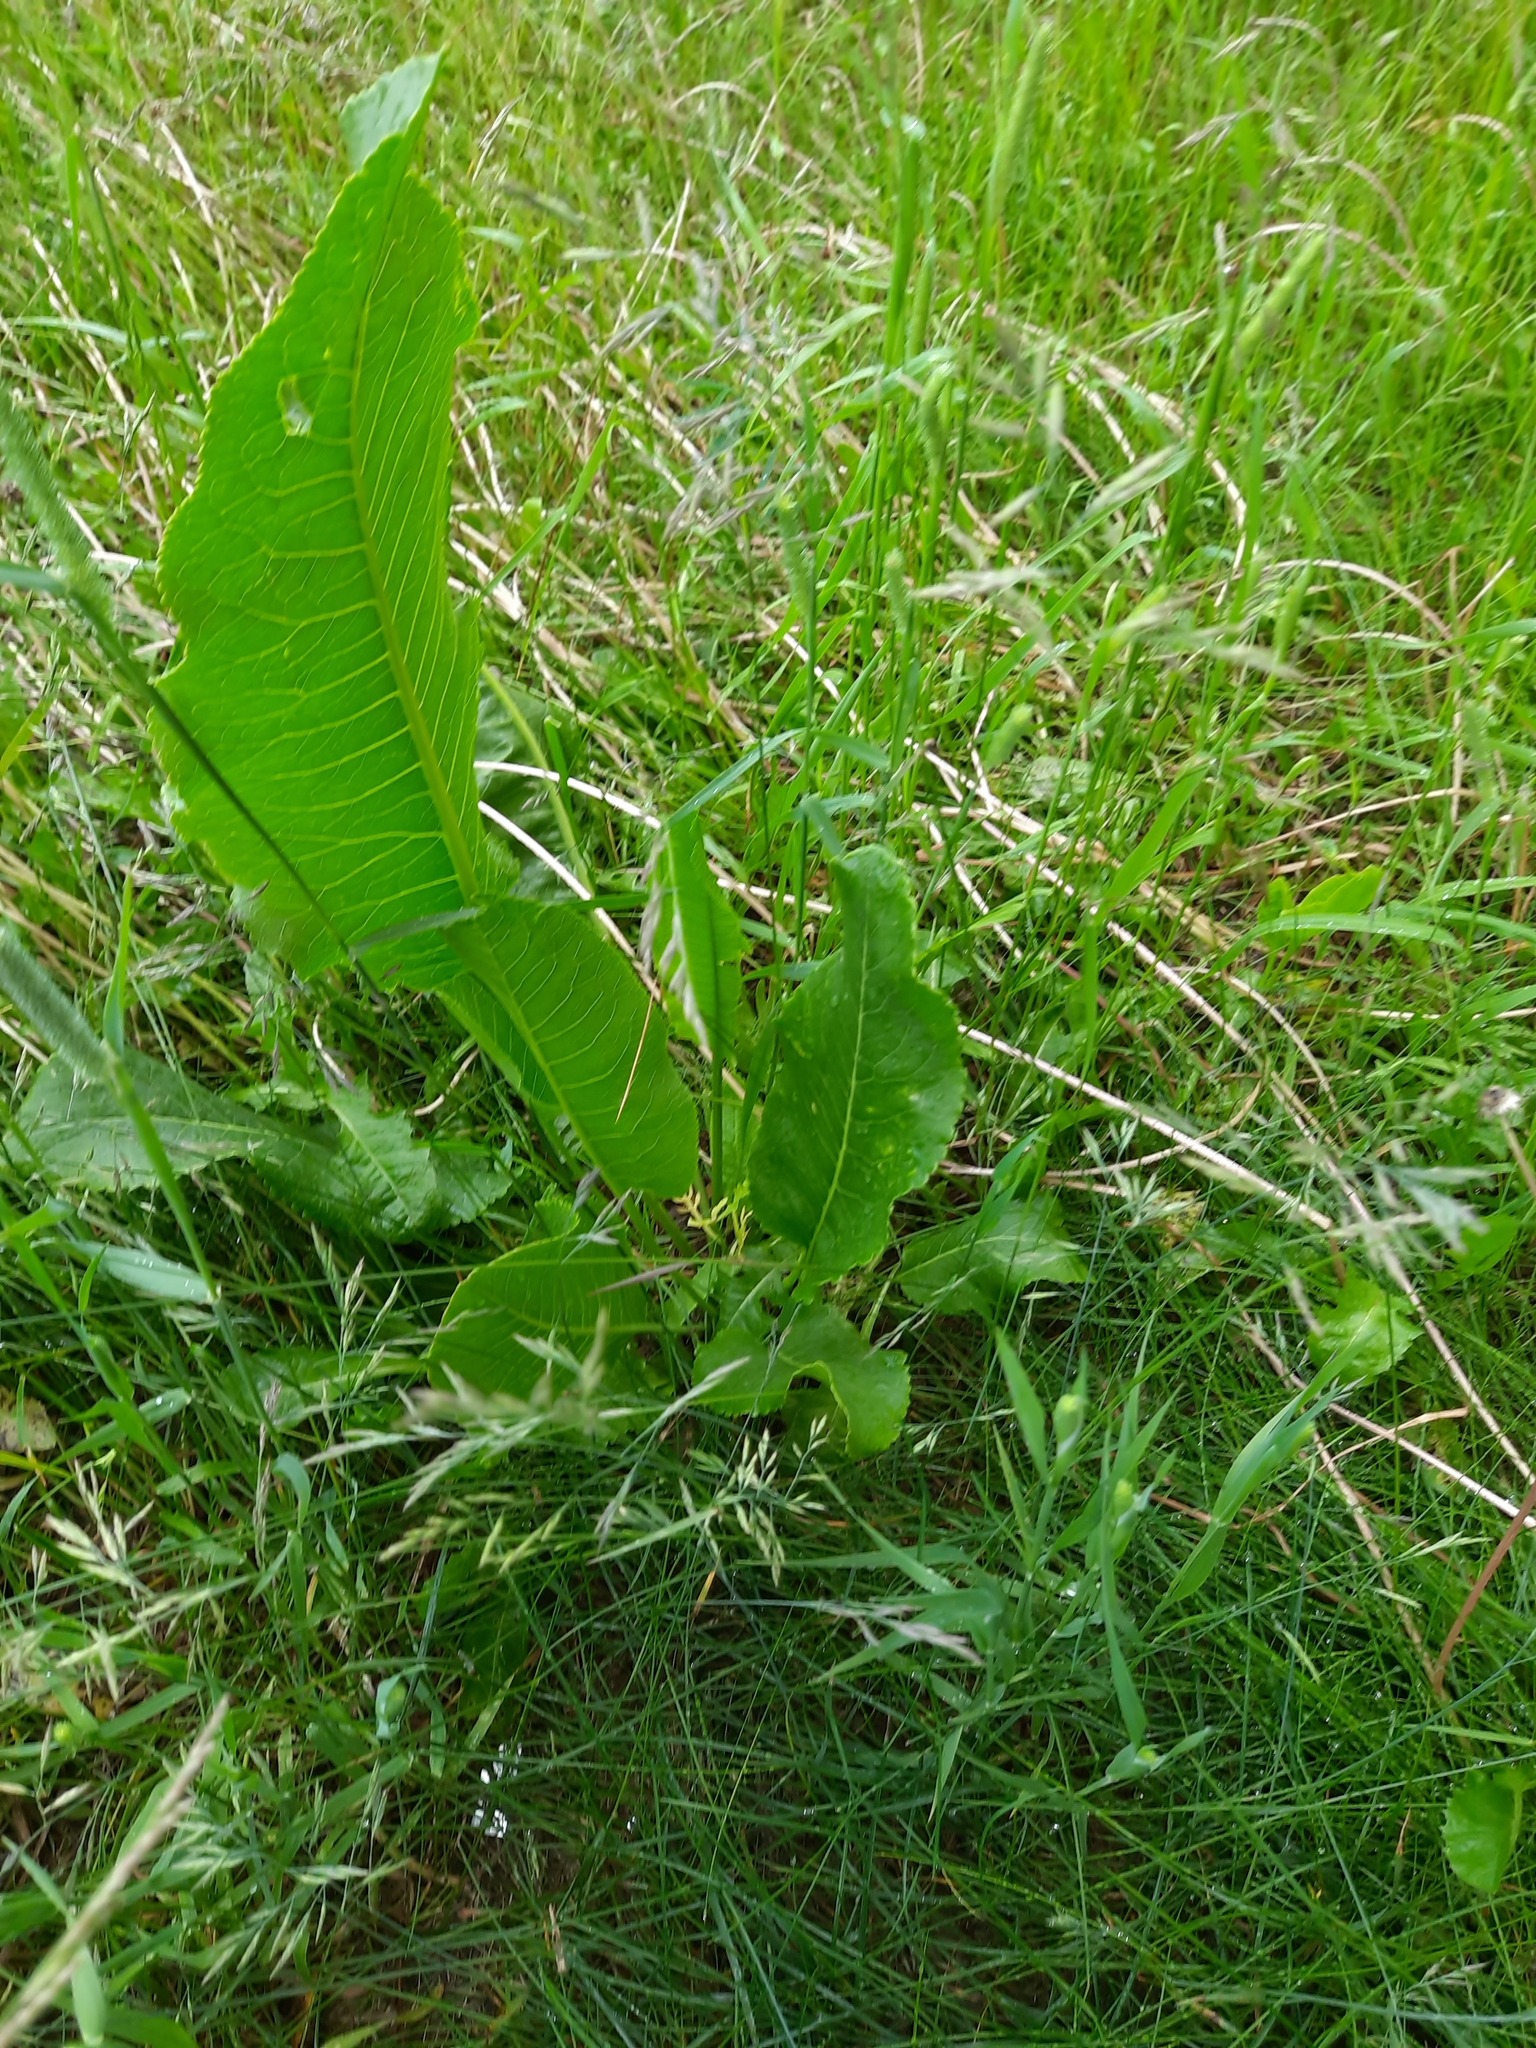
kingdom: Plantae
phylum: Tracheophyta
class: Magnoliopsida
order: Brassicales
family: Brassicaceae
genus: Armoracia
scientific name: Armoracia rusticana
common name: Horseradish
